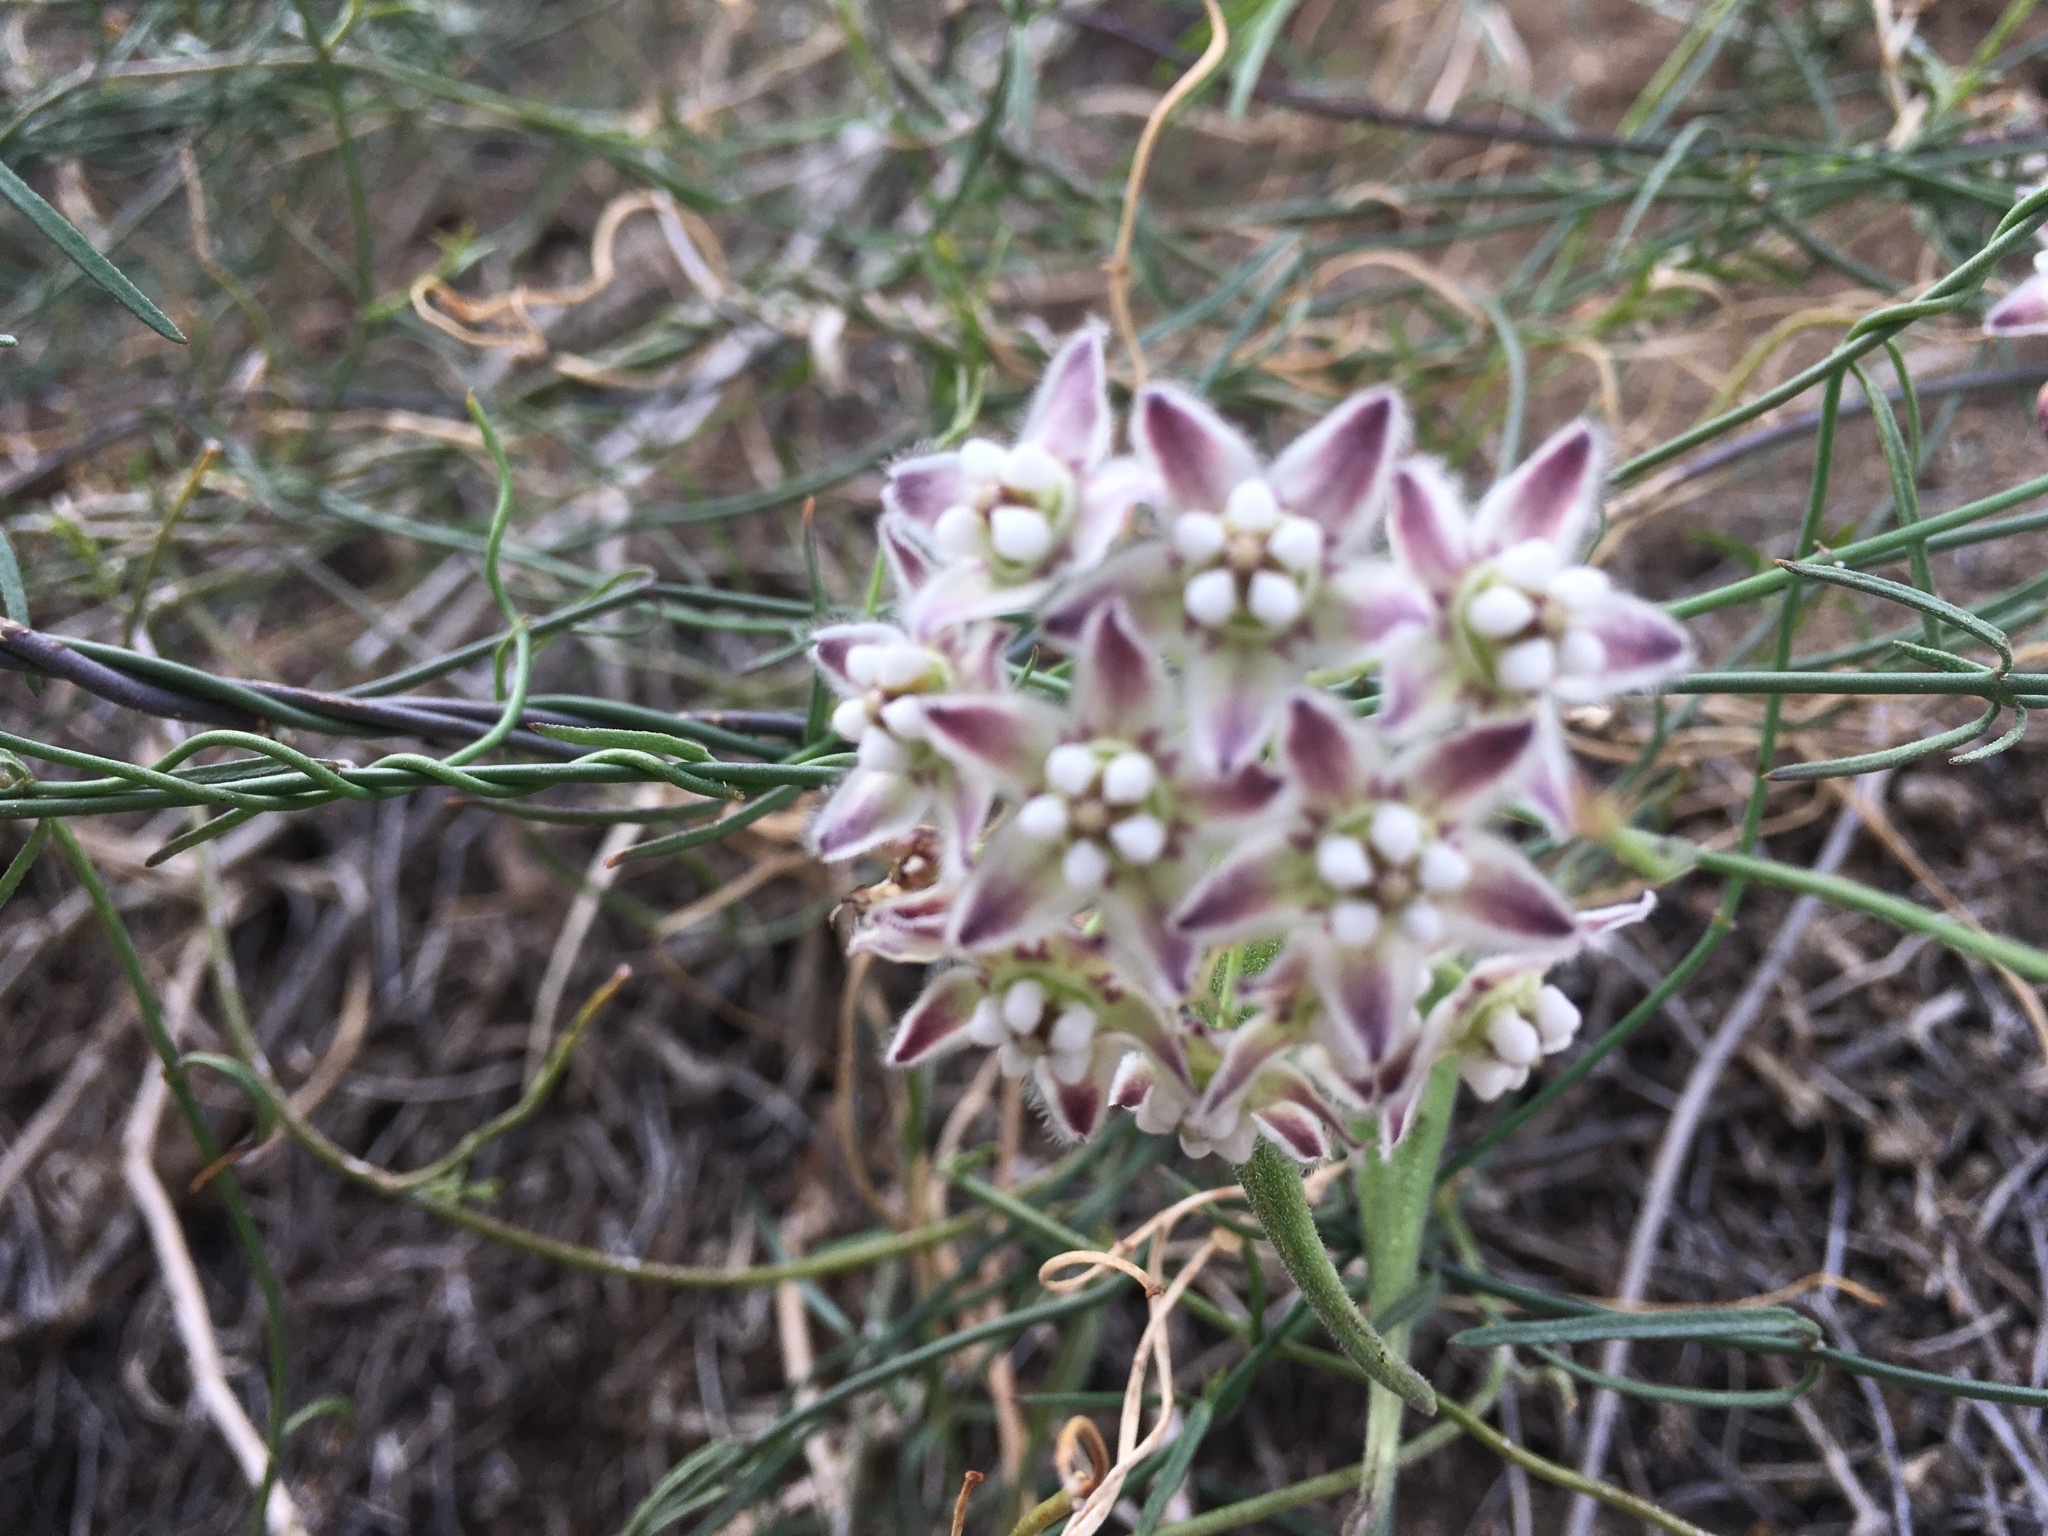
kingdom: Plantae
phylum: Tracheophyta
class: Magnoliopsida
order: Gentianales
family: Apocynaceae
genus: Funastrum
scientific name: Funastrum heterophyllum
